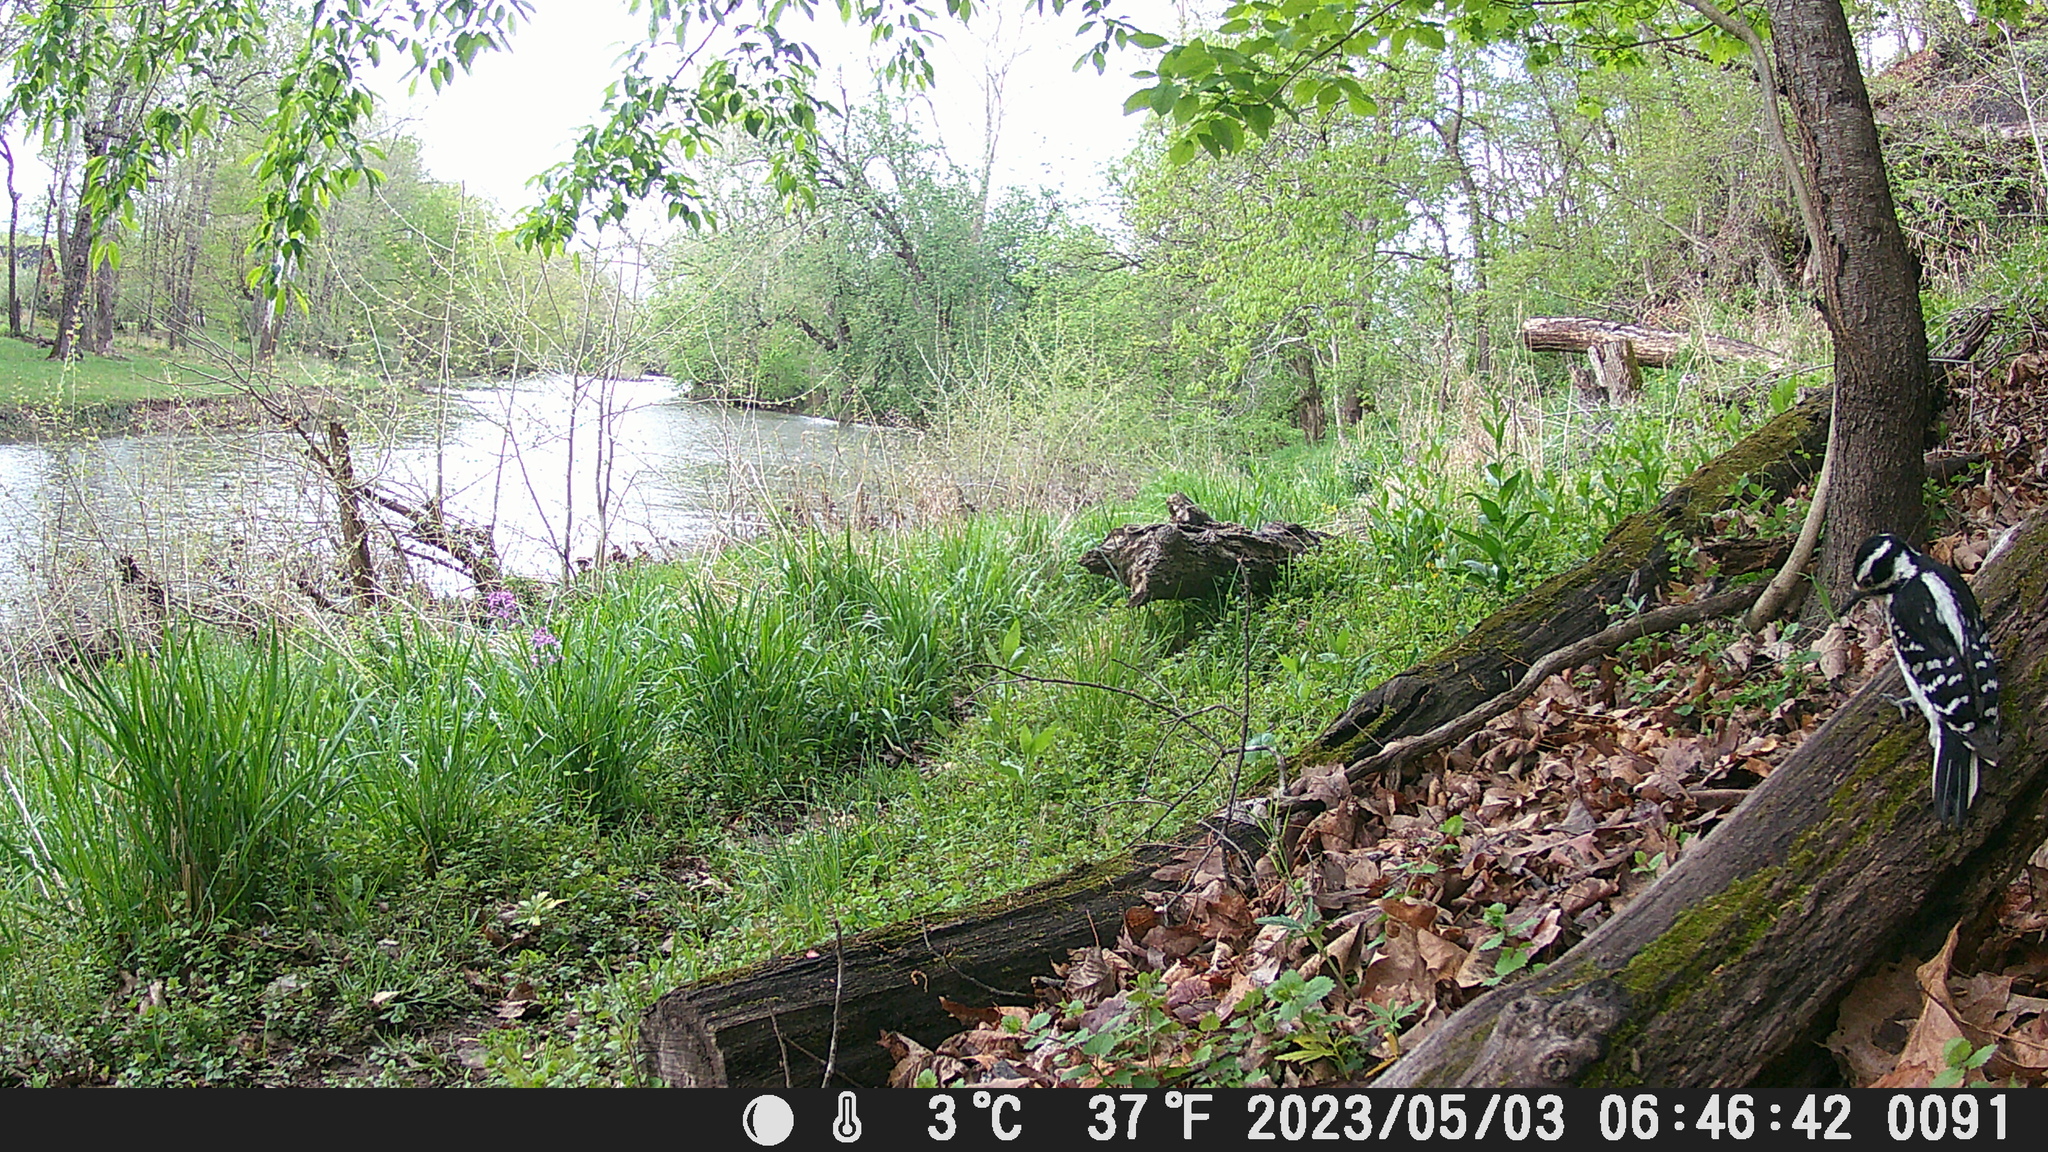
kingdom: Animalia
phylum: Chordata
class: Aves
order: Piciformes
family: Picidae
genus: Leuconotopicus
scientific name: Leuconotopicus villosus
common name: Hairy woodpecker
